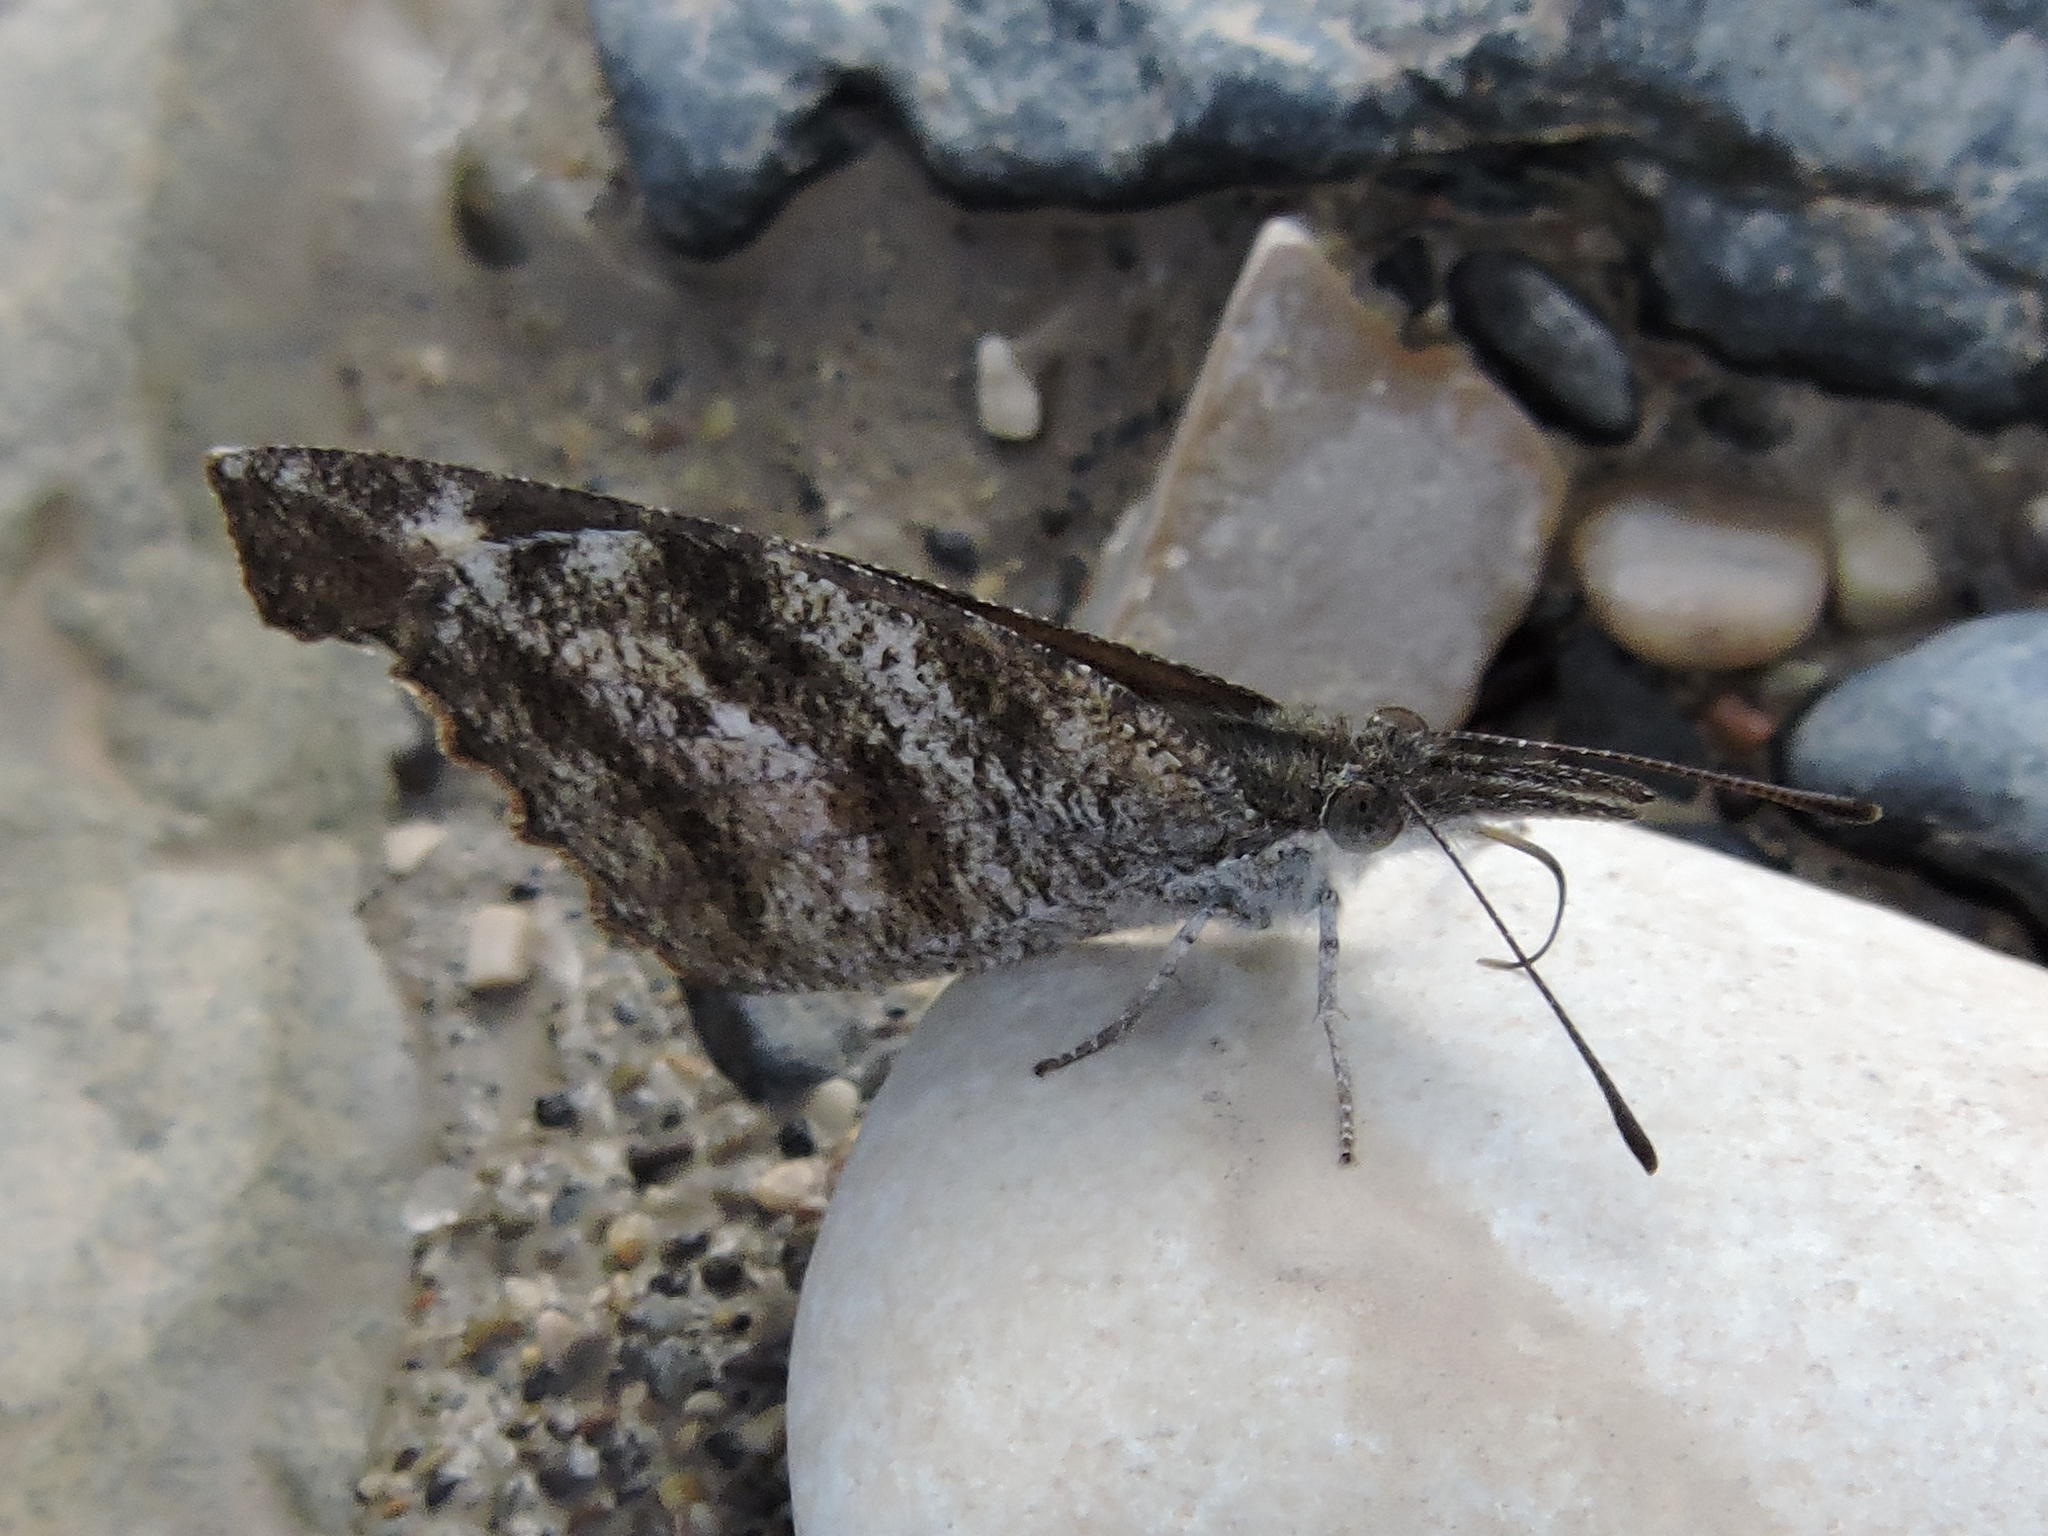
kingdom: Animalia
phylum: Arthropoda
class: Insecta
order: Lepidoptera
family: Nymphalidae
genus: Libytheana
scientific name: Libytheana carinenta
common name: American snout
